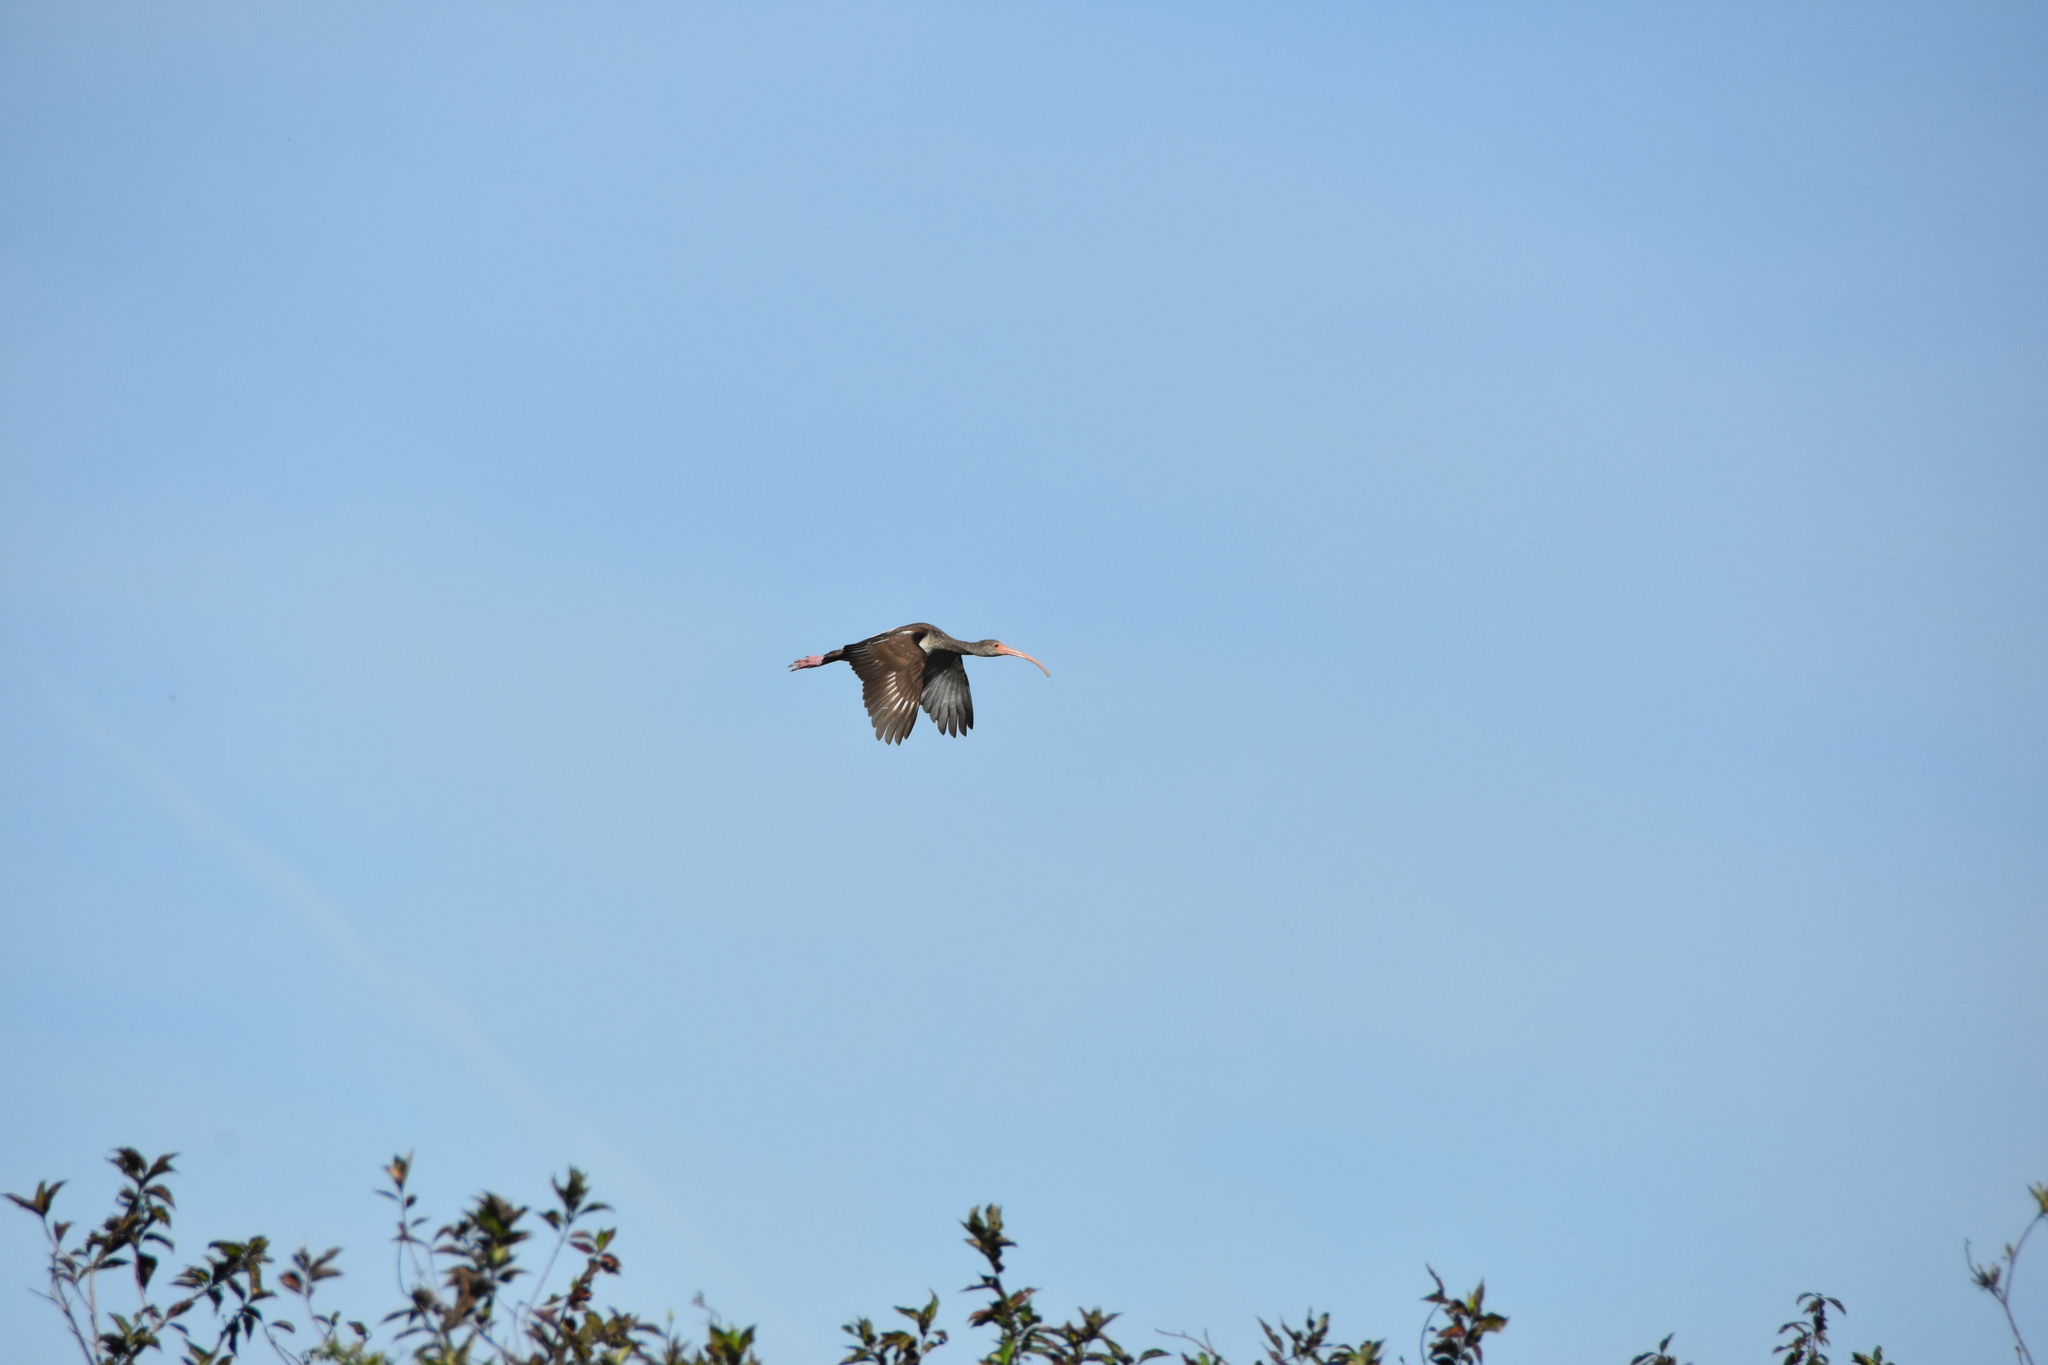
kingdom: Animalia
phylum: Chordata
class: Aves
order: Pelecaniformes
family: Threskiornithidae
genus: Eudocimus
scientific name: Eudocimus albus
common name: White ibis
